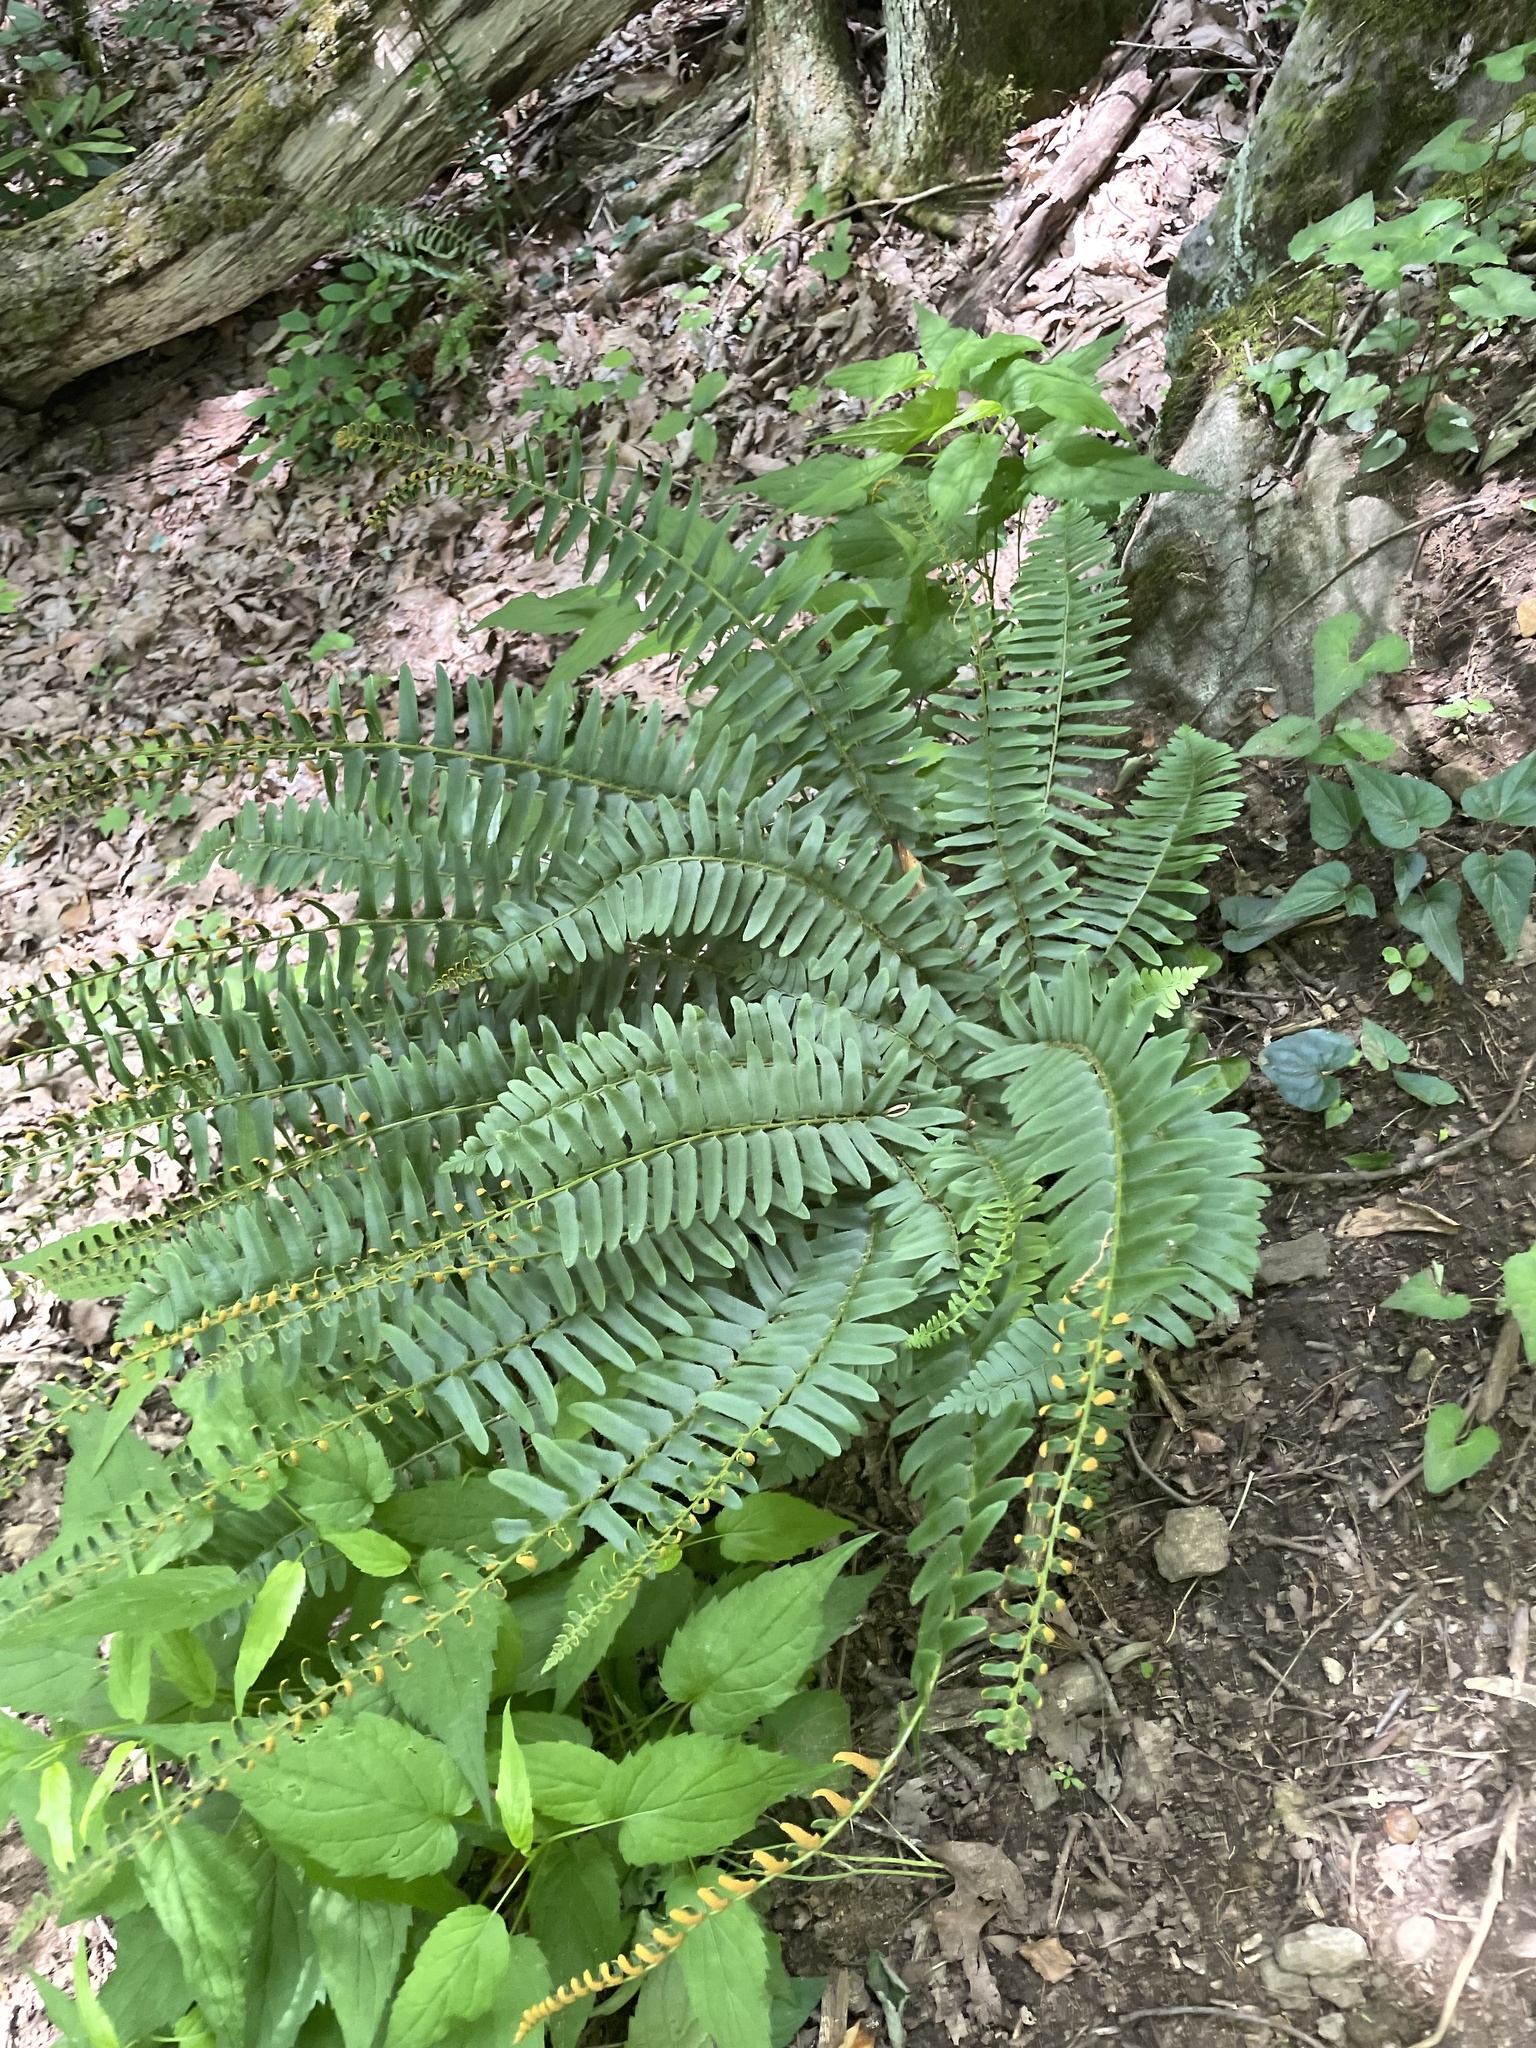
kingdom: Plantae
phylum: Tracheophyta
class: Polypodiopsida
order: Polypodiales
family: Dryopteridaceae
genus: Polystichum
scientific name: Polystichum acrostichoides
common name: Christmas fern
